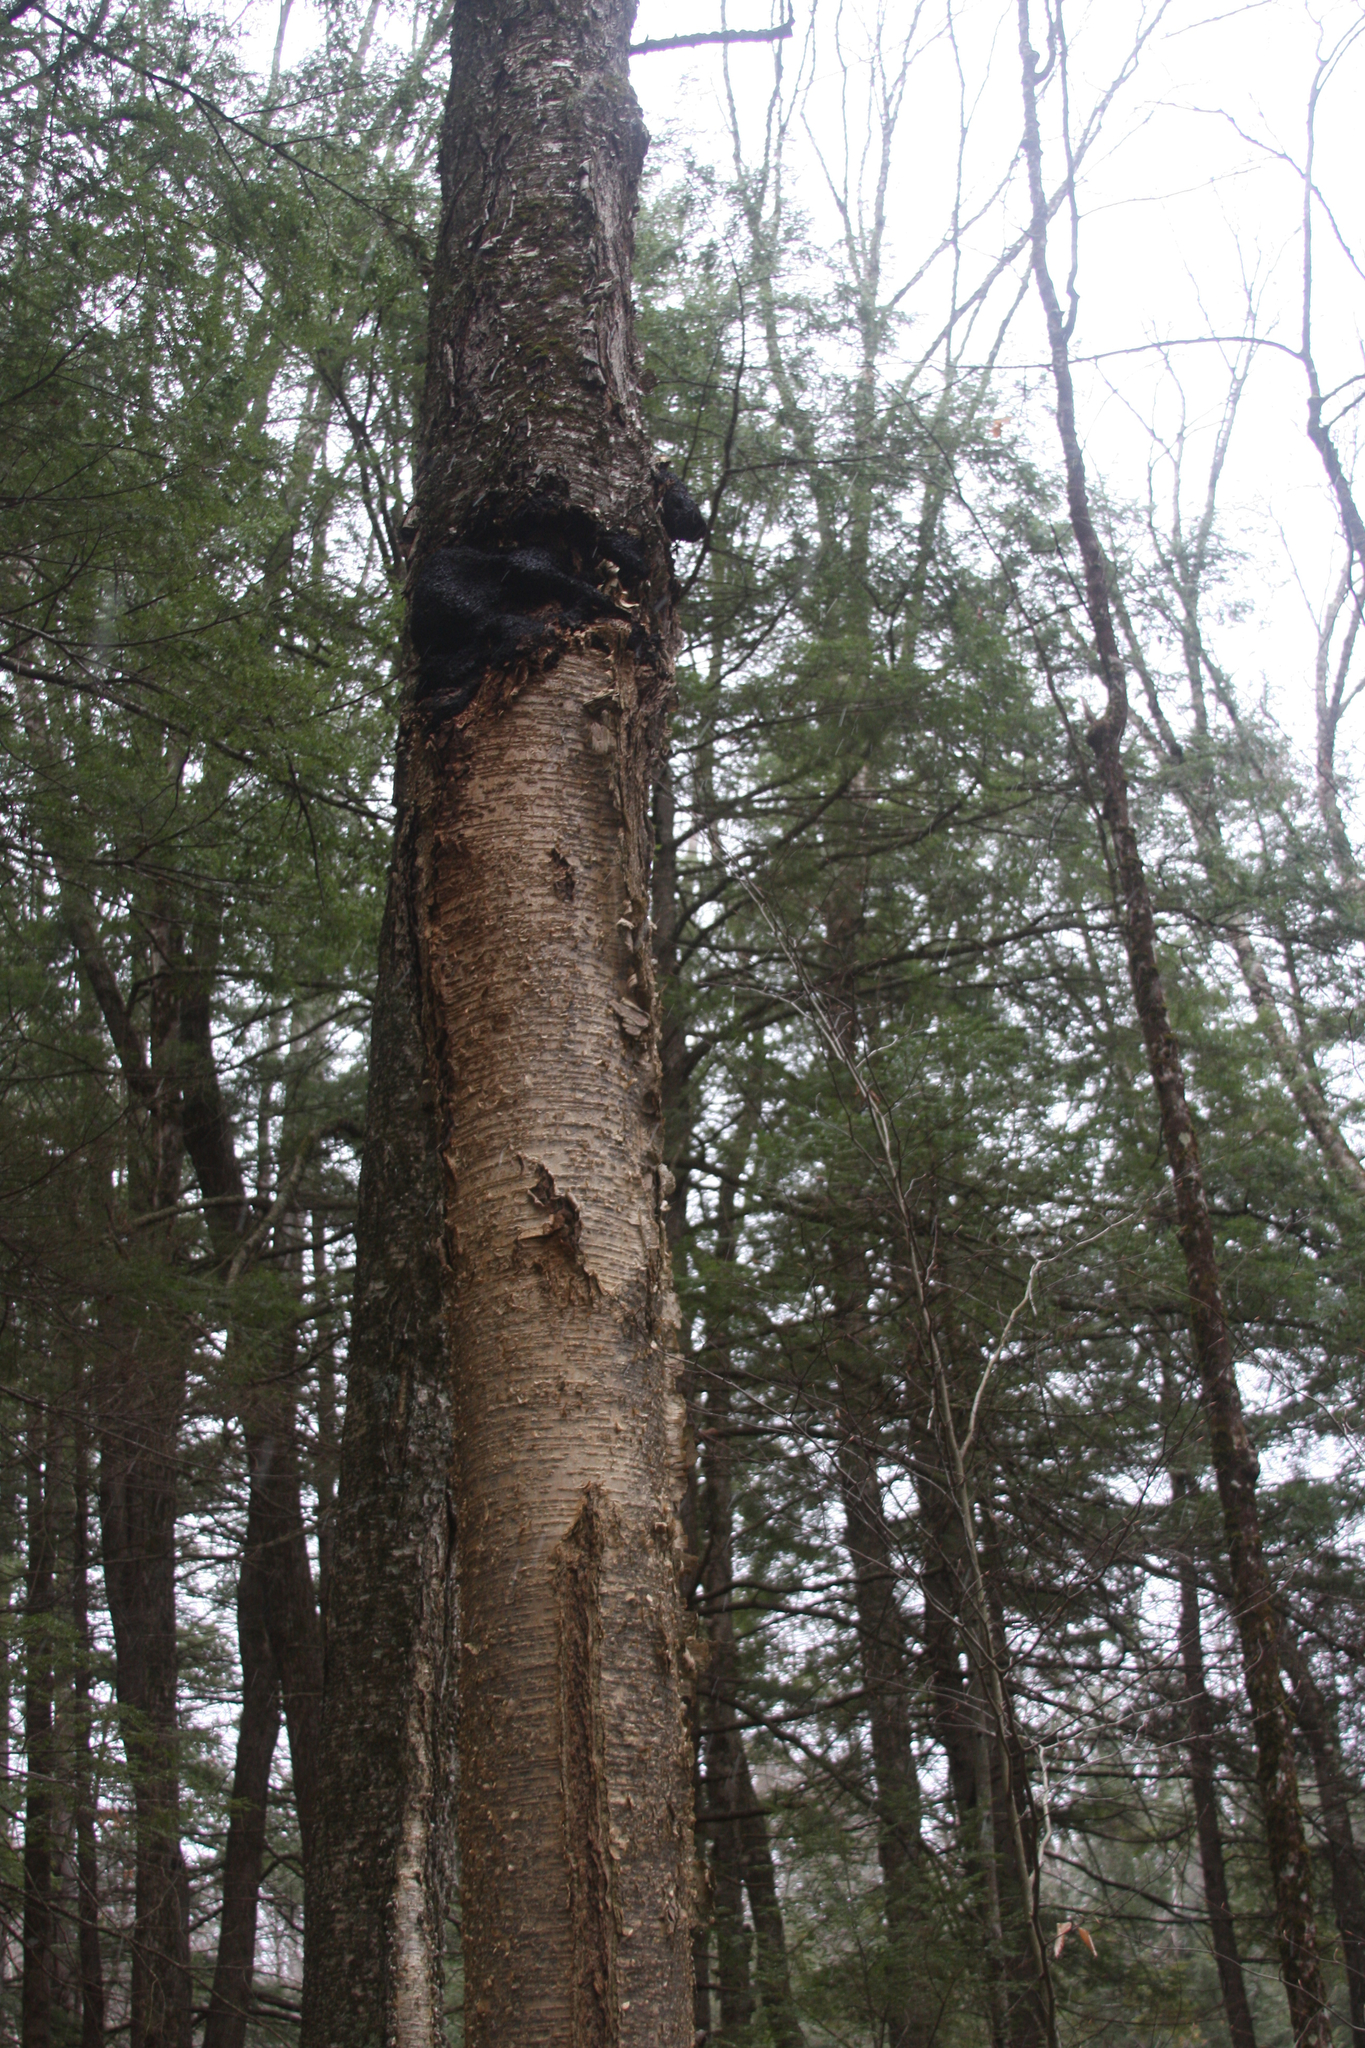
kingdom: Fungi
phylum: Basidiomycota
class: Agaricomycetes
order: Hymenochaetales
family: Hymenochaetaceae
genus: Inonotus
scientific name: Inonotus obliquus
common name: Chaga
